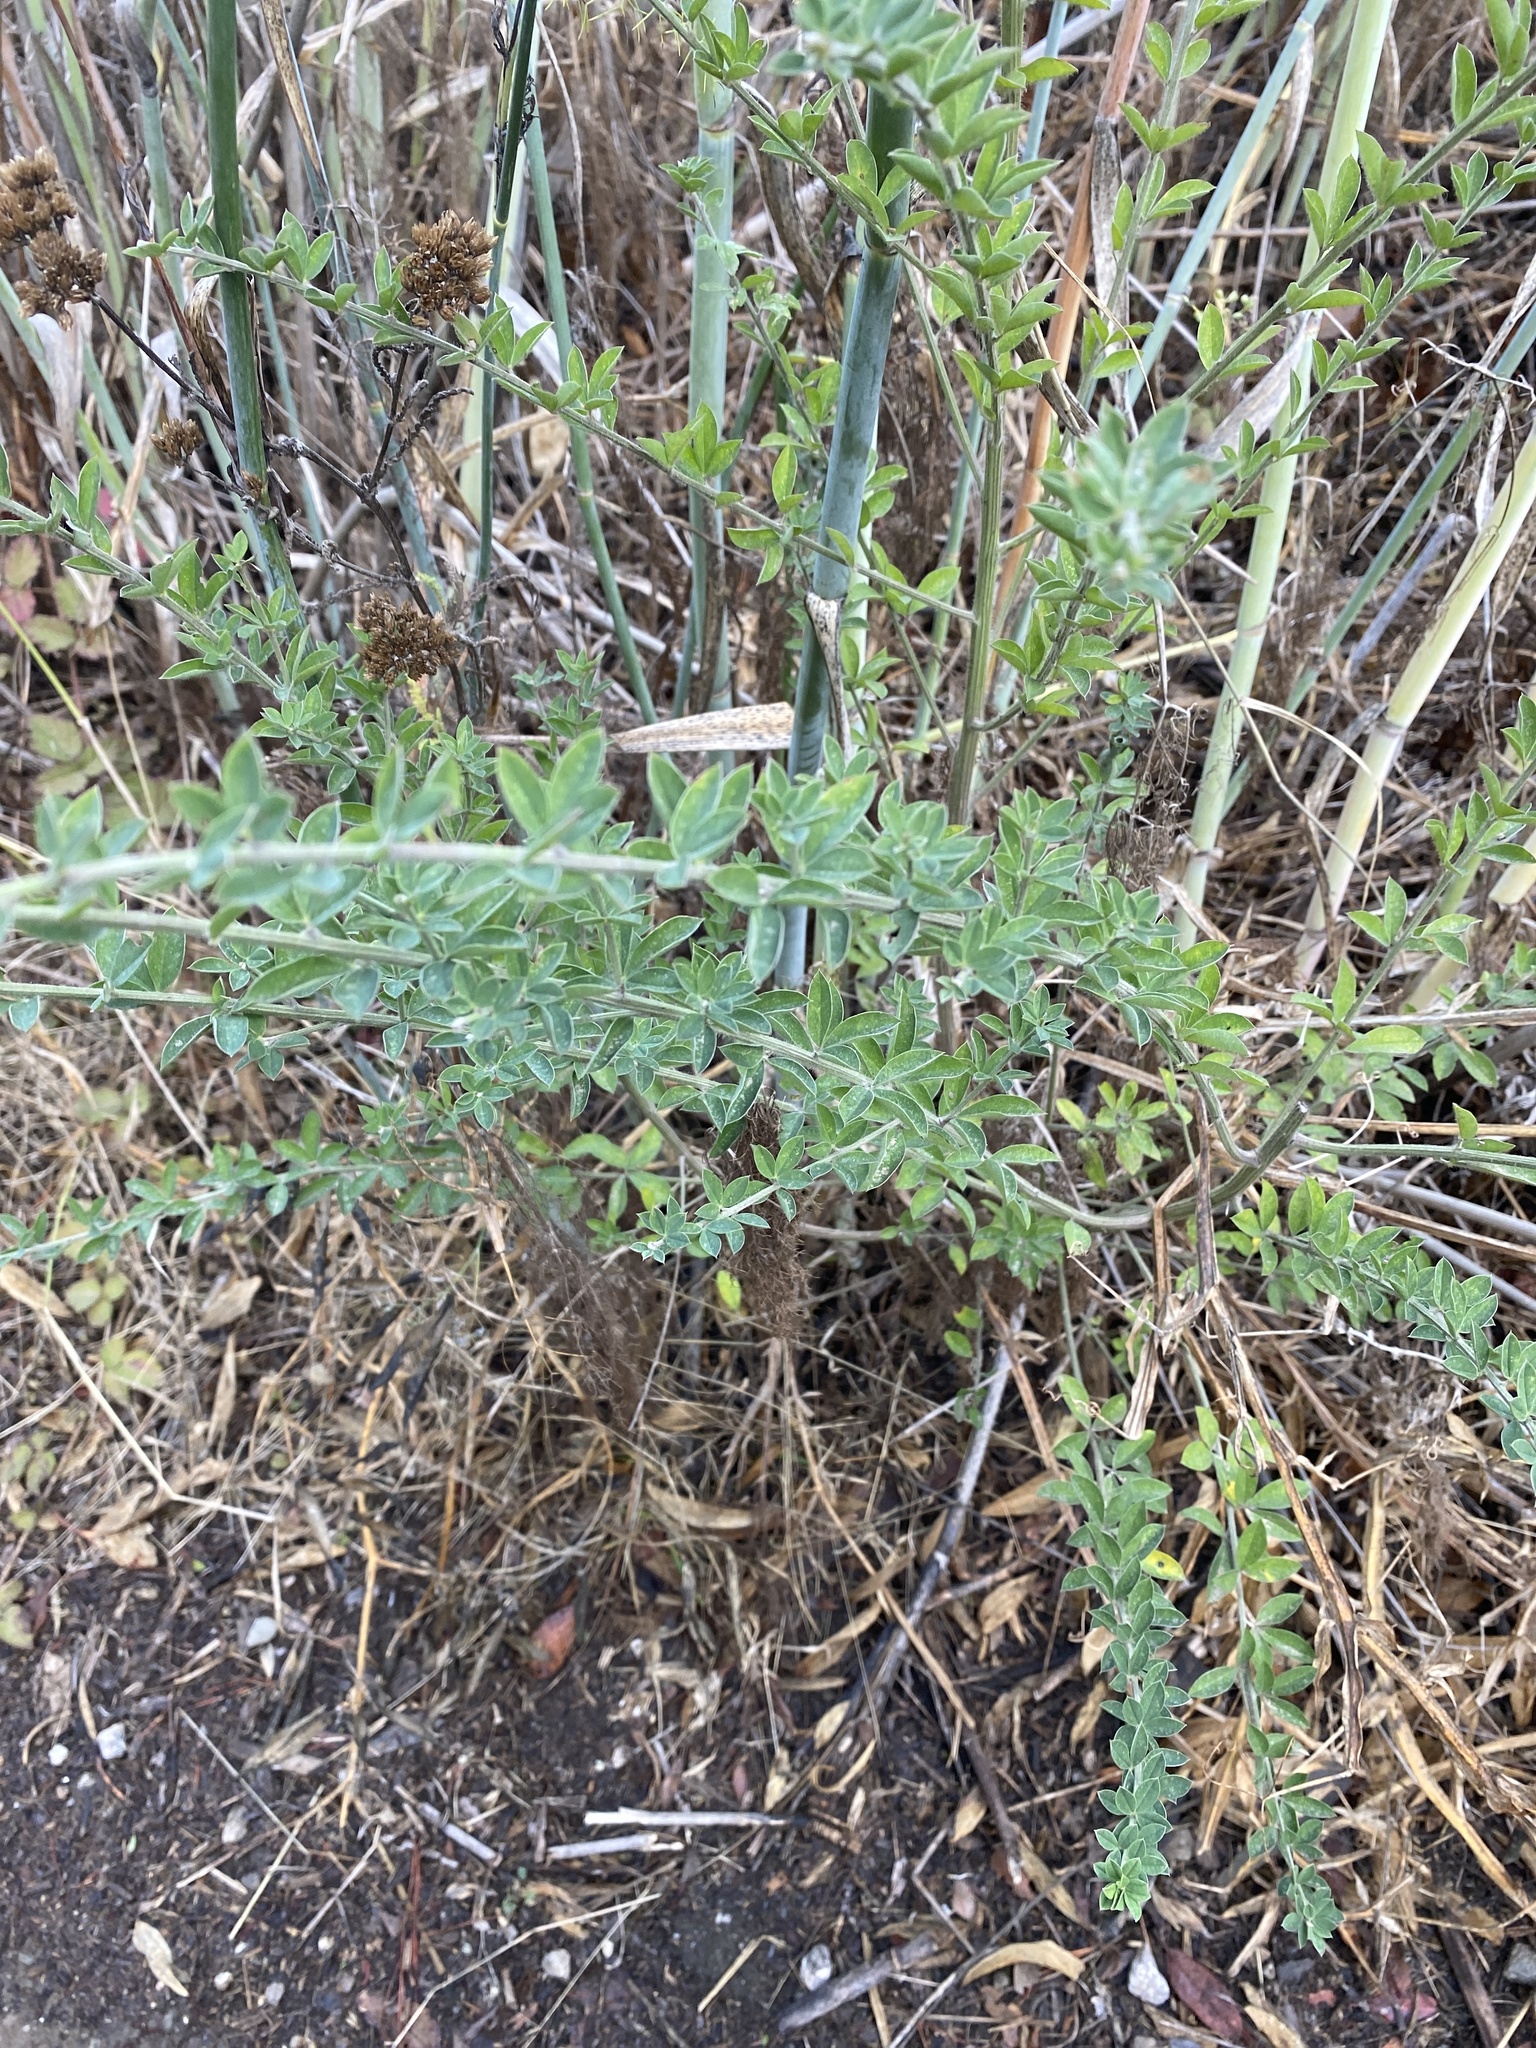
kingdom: Plantae
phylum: Tracheophyta
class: Magnoliopsida
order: Fabales
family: Fabaceae
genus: Genista
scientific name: Genista monspessulana
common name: Montpellier broom
